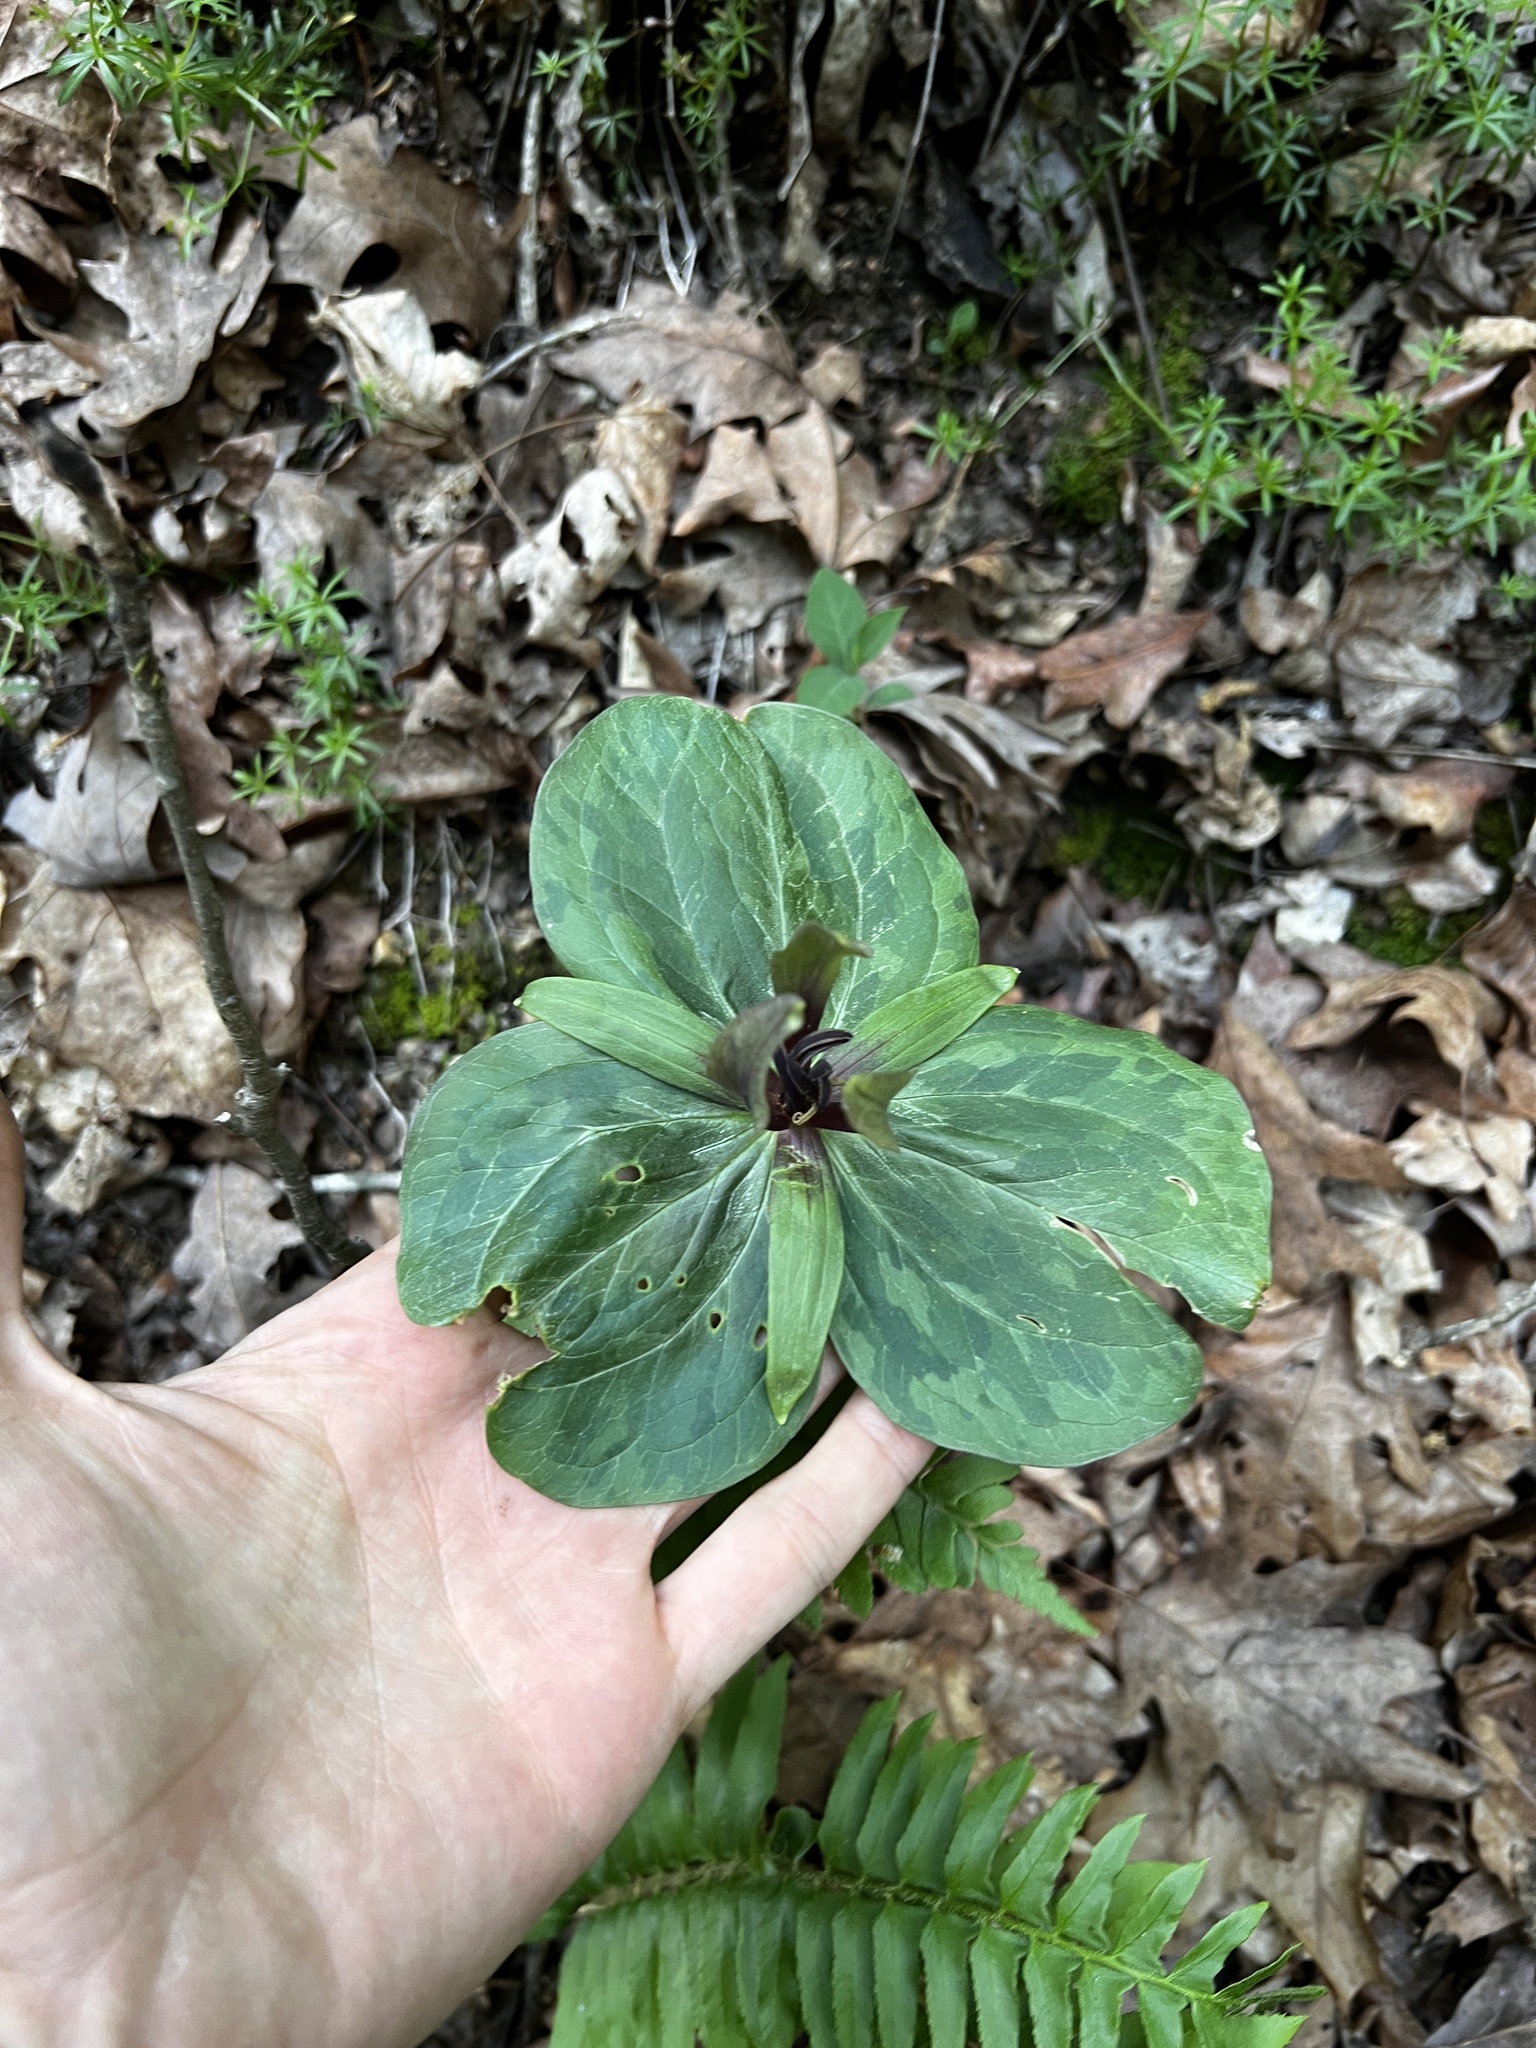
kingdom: Plantae
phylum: Tracheophyta
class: Liliopsida
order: Liliales
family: Melanthiaceae
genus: Trillium
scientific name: Trillium viridescens
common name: Ozark green trillium
